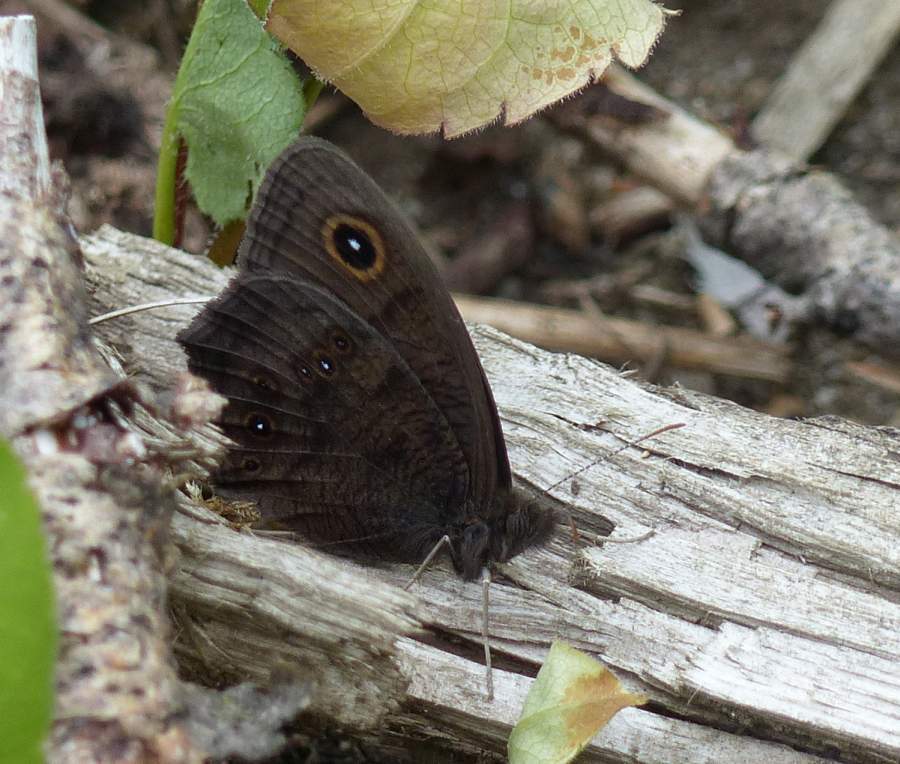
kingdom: Animalia
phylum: Arthropoda
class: Insecta
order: Lepidoptera
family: Nymphalidae
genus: Cercyonis
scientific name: Cercyonis pegala
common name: Common wood-nymph
